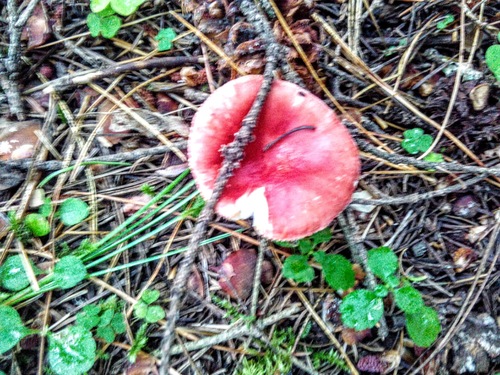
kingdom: Fungi
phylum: Basidiomycota
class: Agaricomycetes
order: Russulales
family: Russulaceae
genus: Russula
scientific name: Russula sanguinea
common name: Bloody brittlegill
